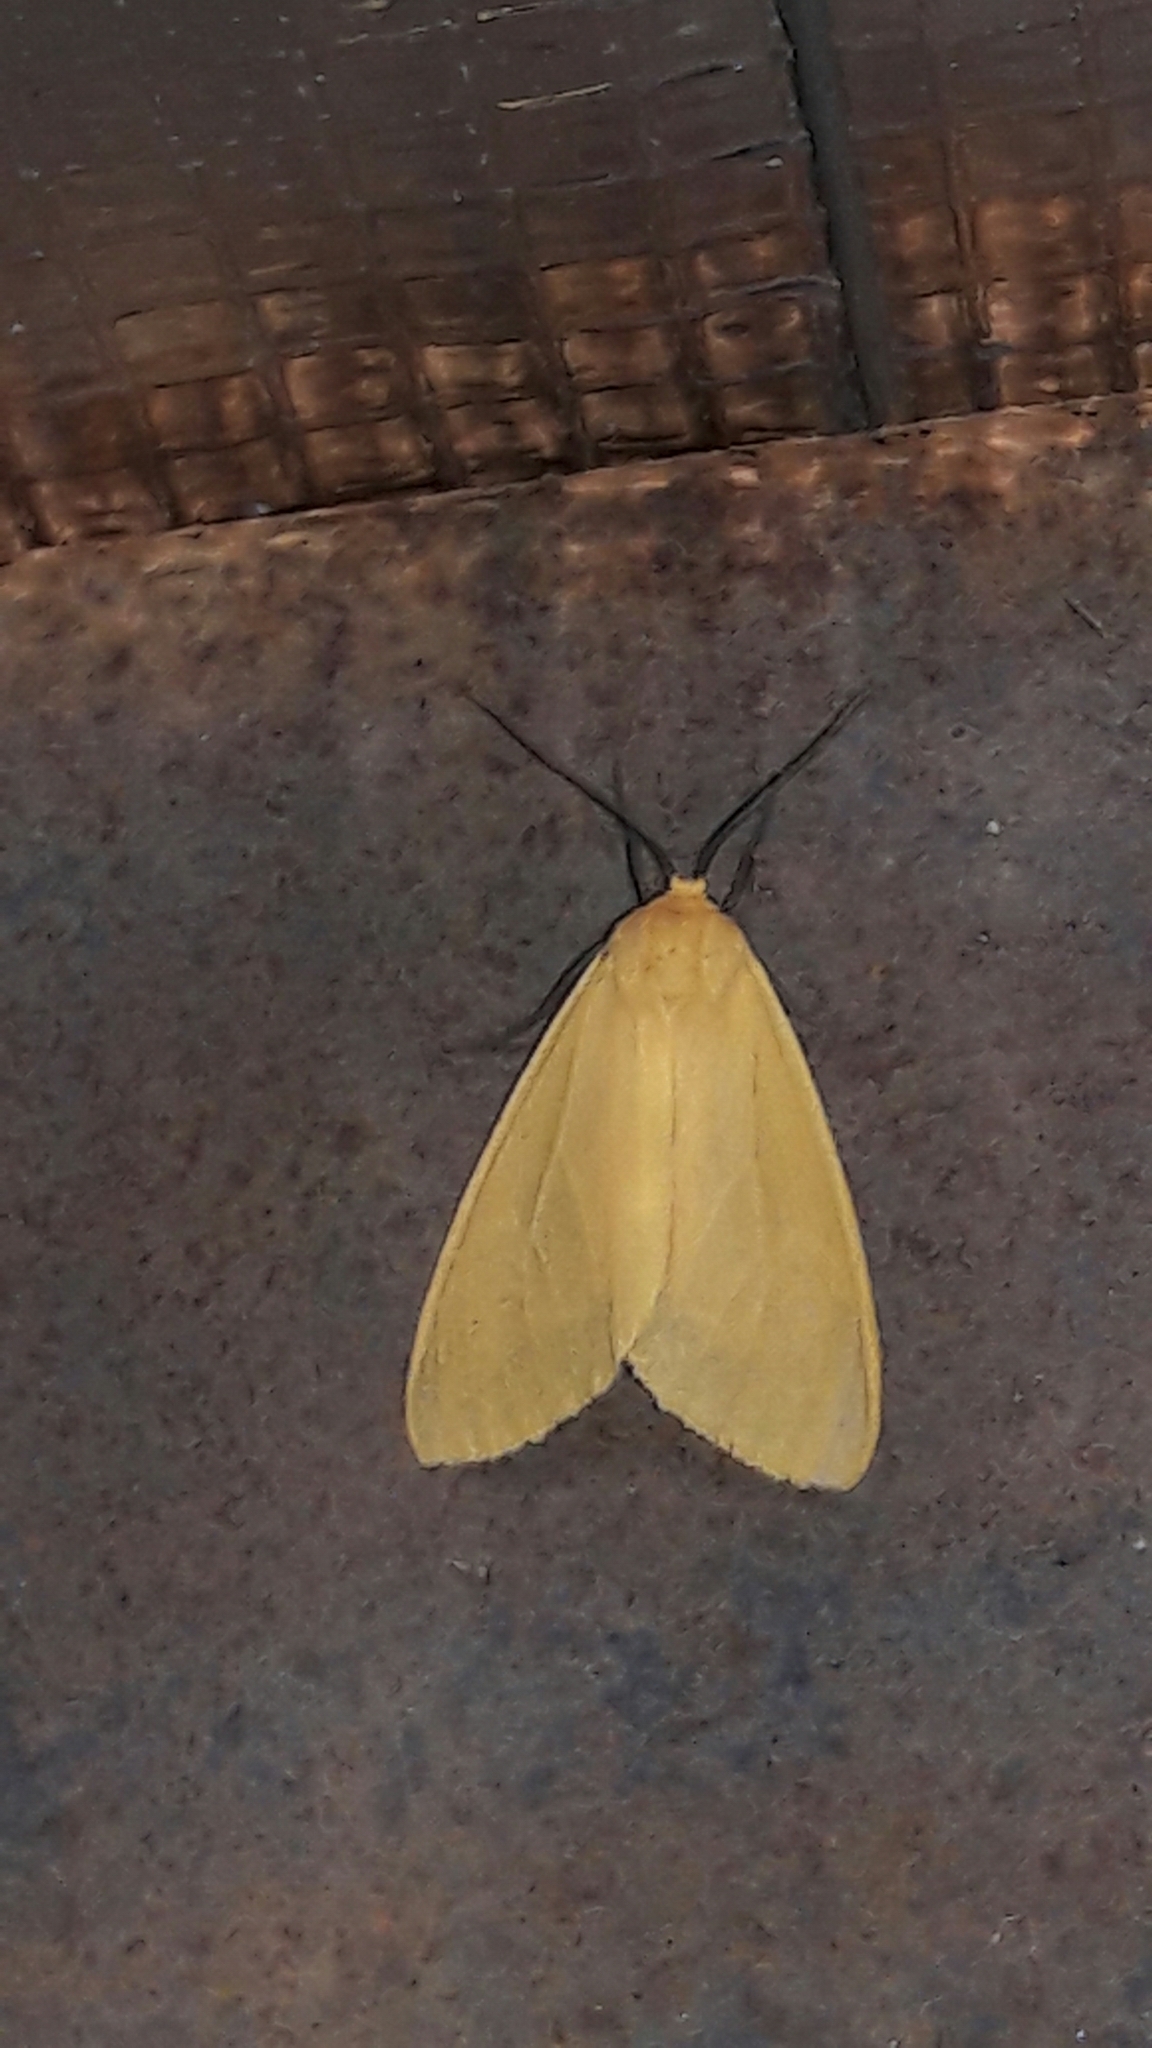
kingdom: Animalia
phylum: Arthropoda
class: Insecta
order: Lepidoptera
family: Erebidae
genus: Pareuchaetes
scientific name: Pareuchaetes aurata
